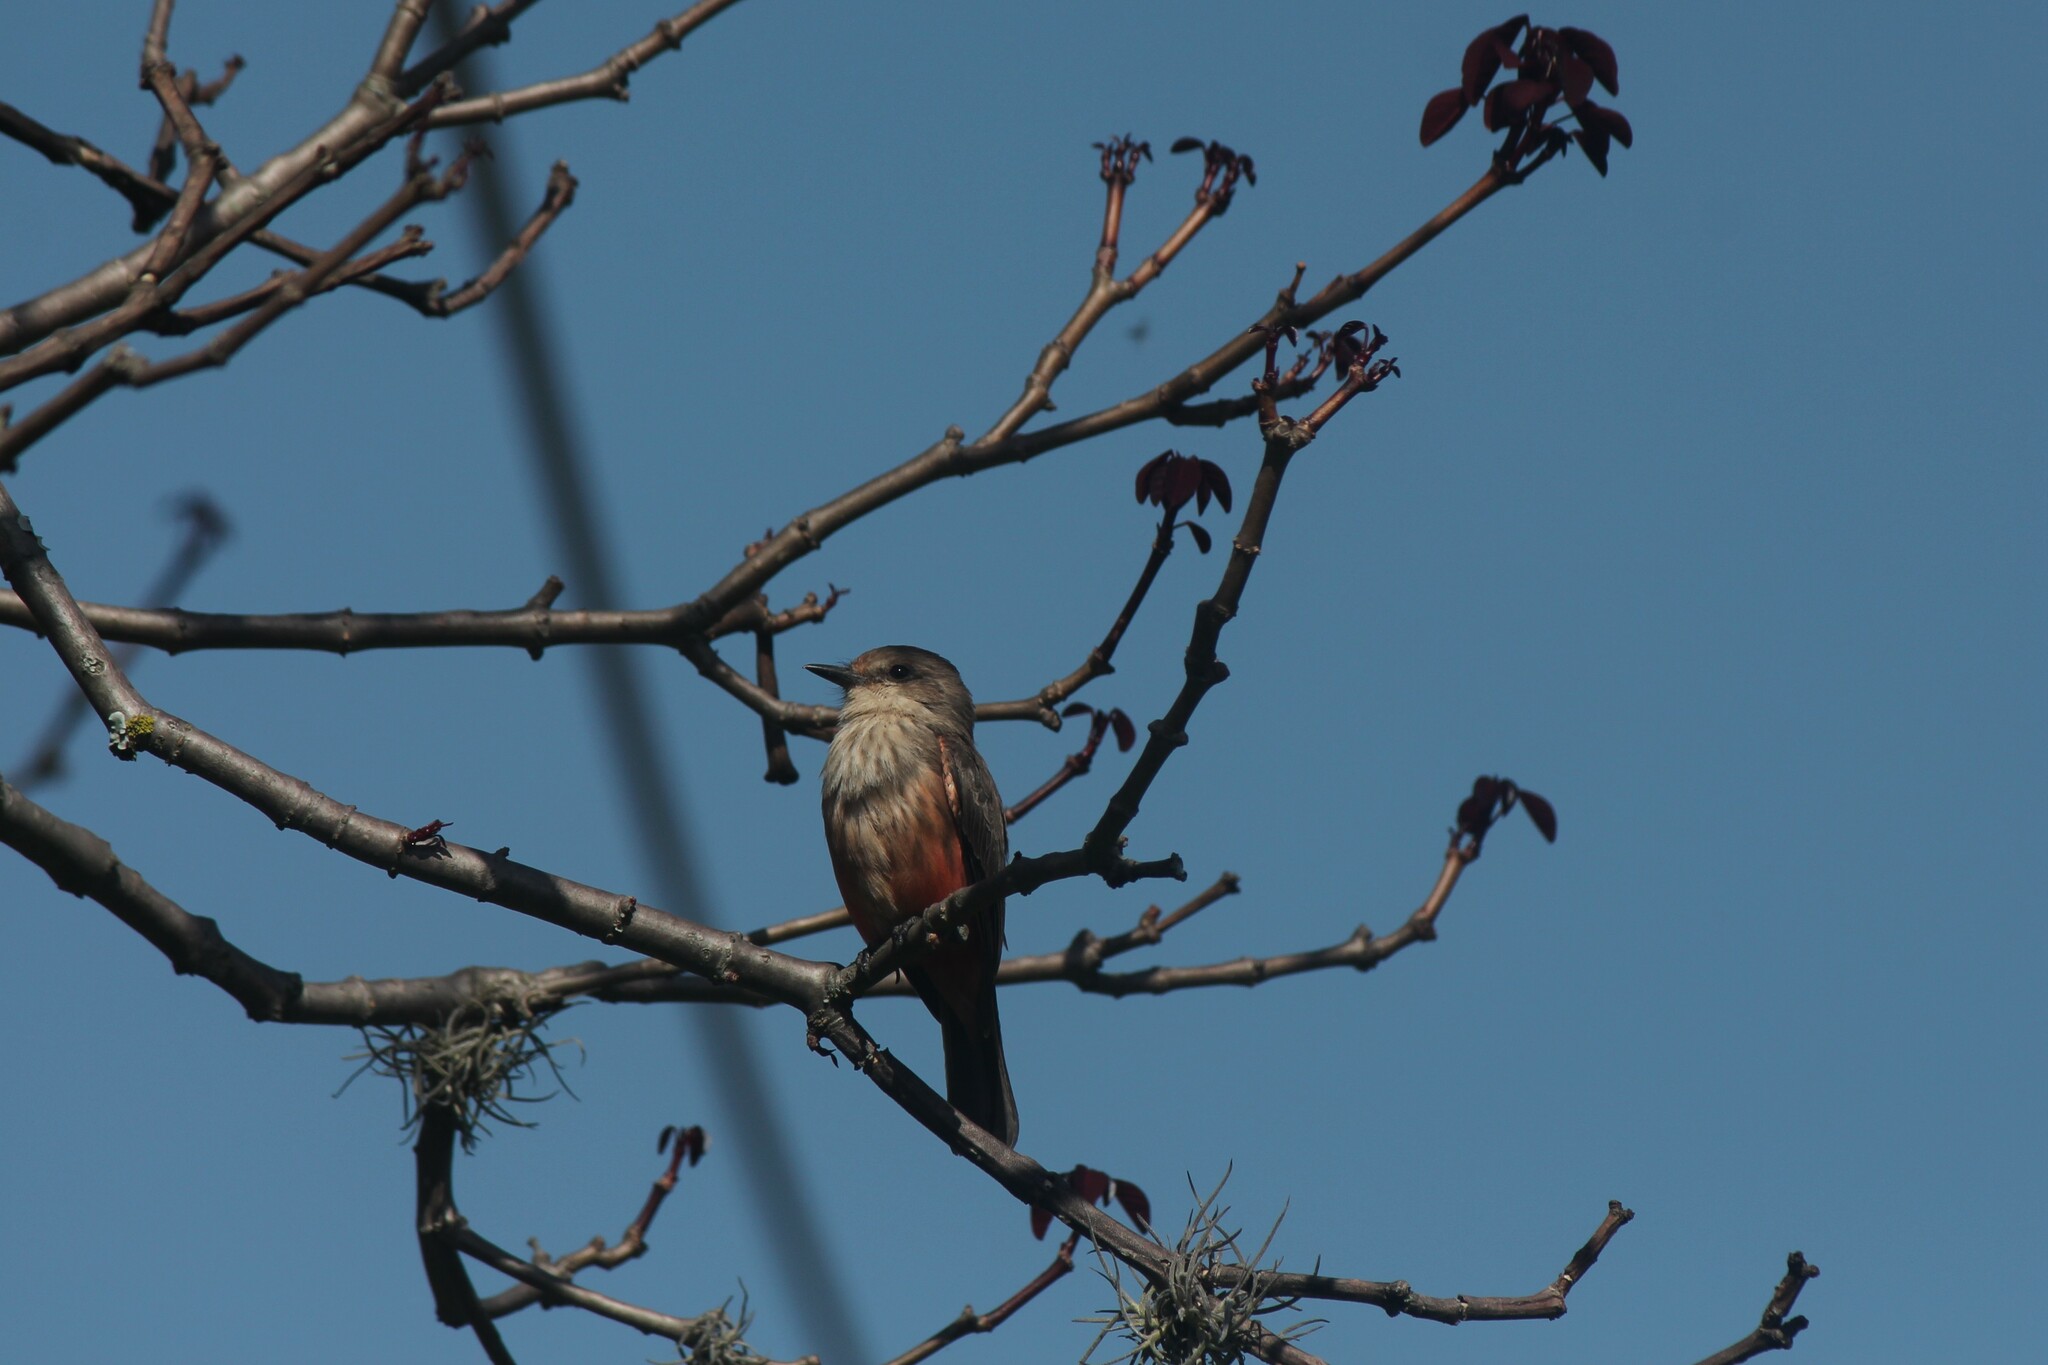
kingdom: Animalia
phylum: Chordata
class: Aves
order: Passeriformes
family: Tyrannidae
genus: Pyrocephalus
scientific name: Pyrocephalus rubinus
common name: Vermilion flycatcher
